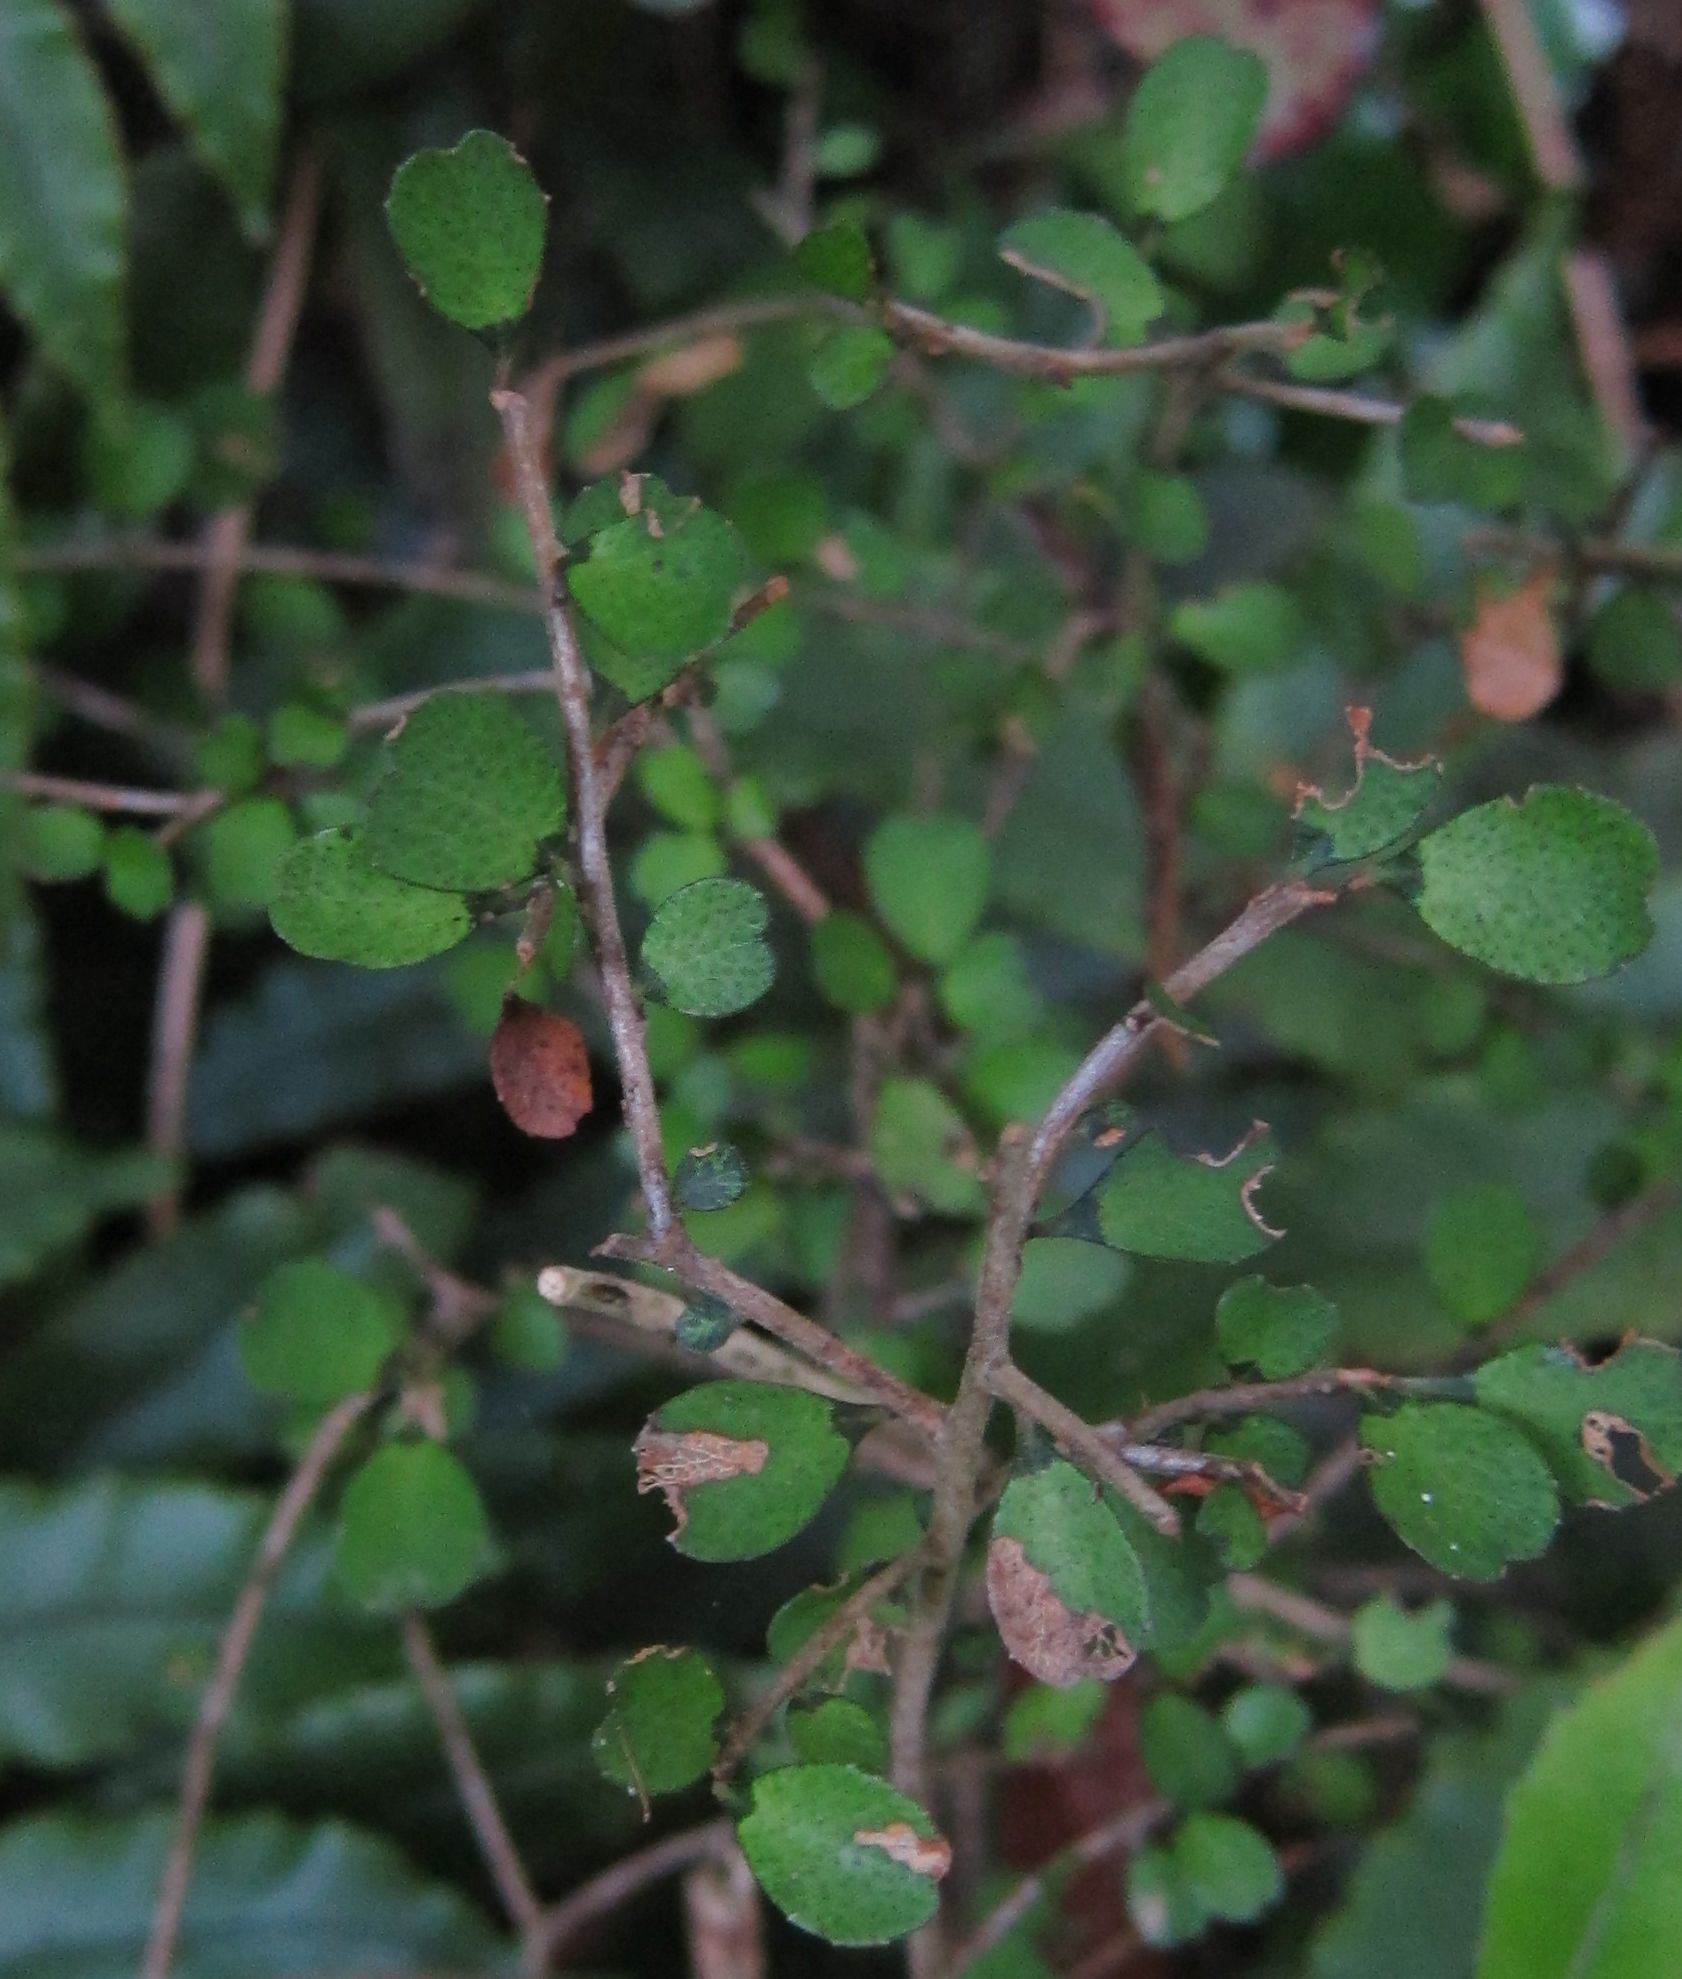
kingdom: Plantae
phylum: Tracheophyta
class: Magnoliopsida
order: Ericales
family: Primulaceae
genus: Myrsine
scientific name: Myrsine divaricata
